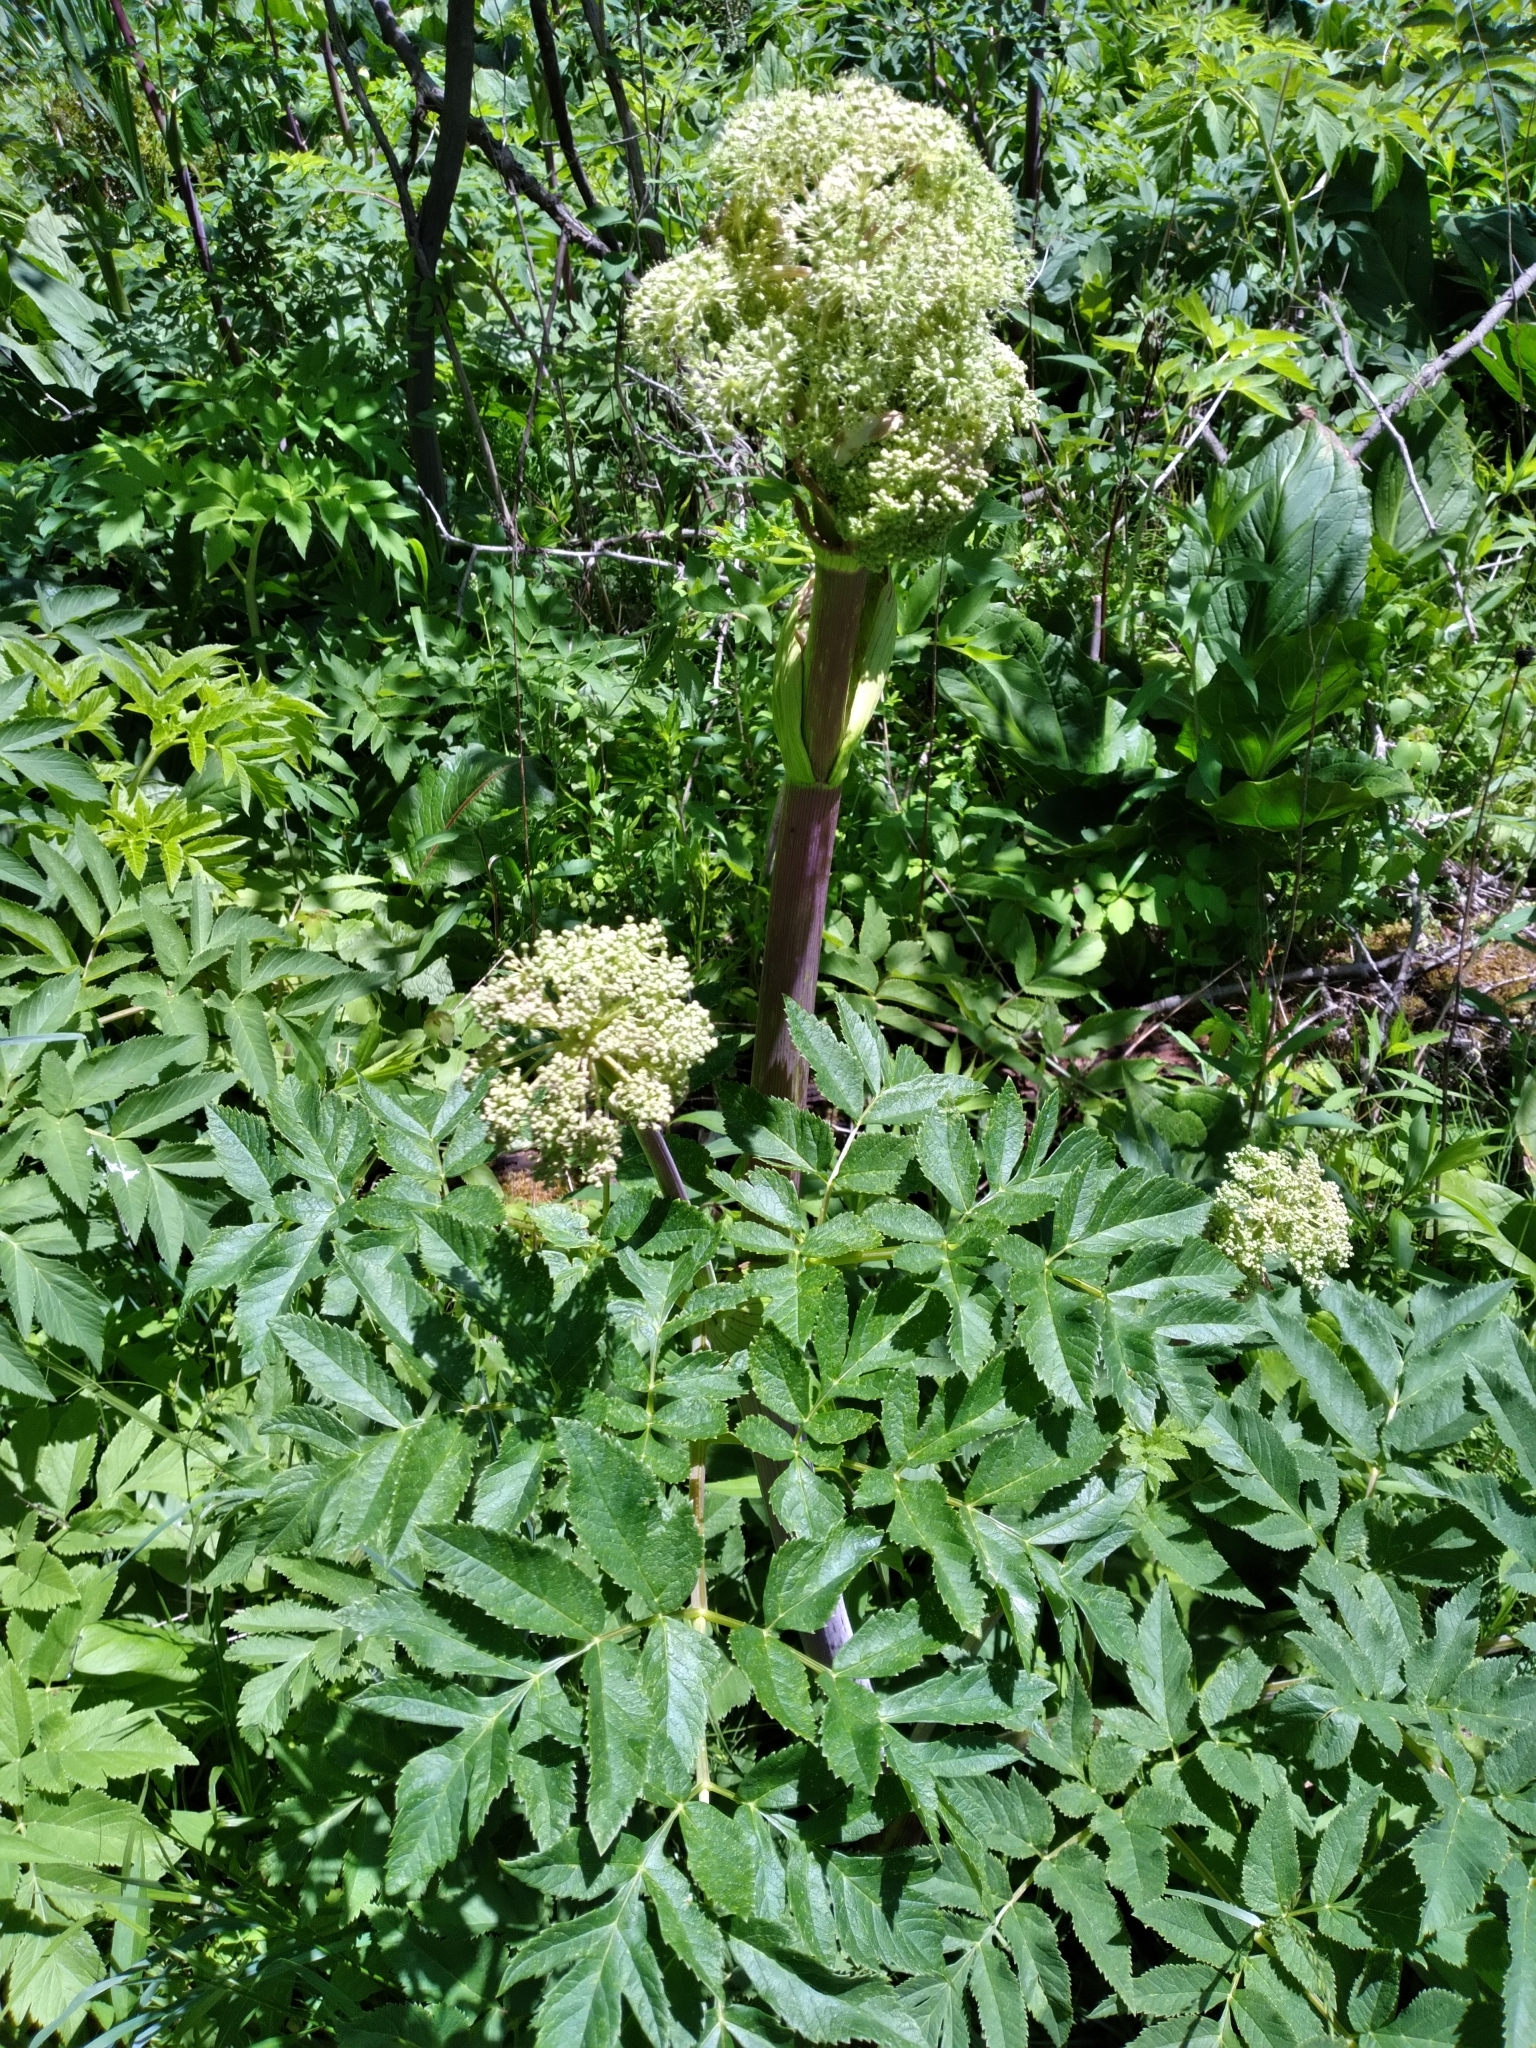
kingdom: Plantae
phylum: Tracheophyta
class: Magnoliopsida
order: Apiales
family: Apiaceae
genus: Angelica
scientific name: Angelica atropurpurea
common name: Great angelica
